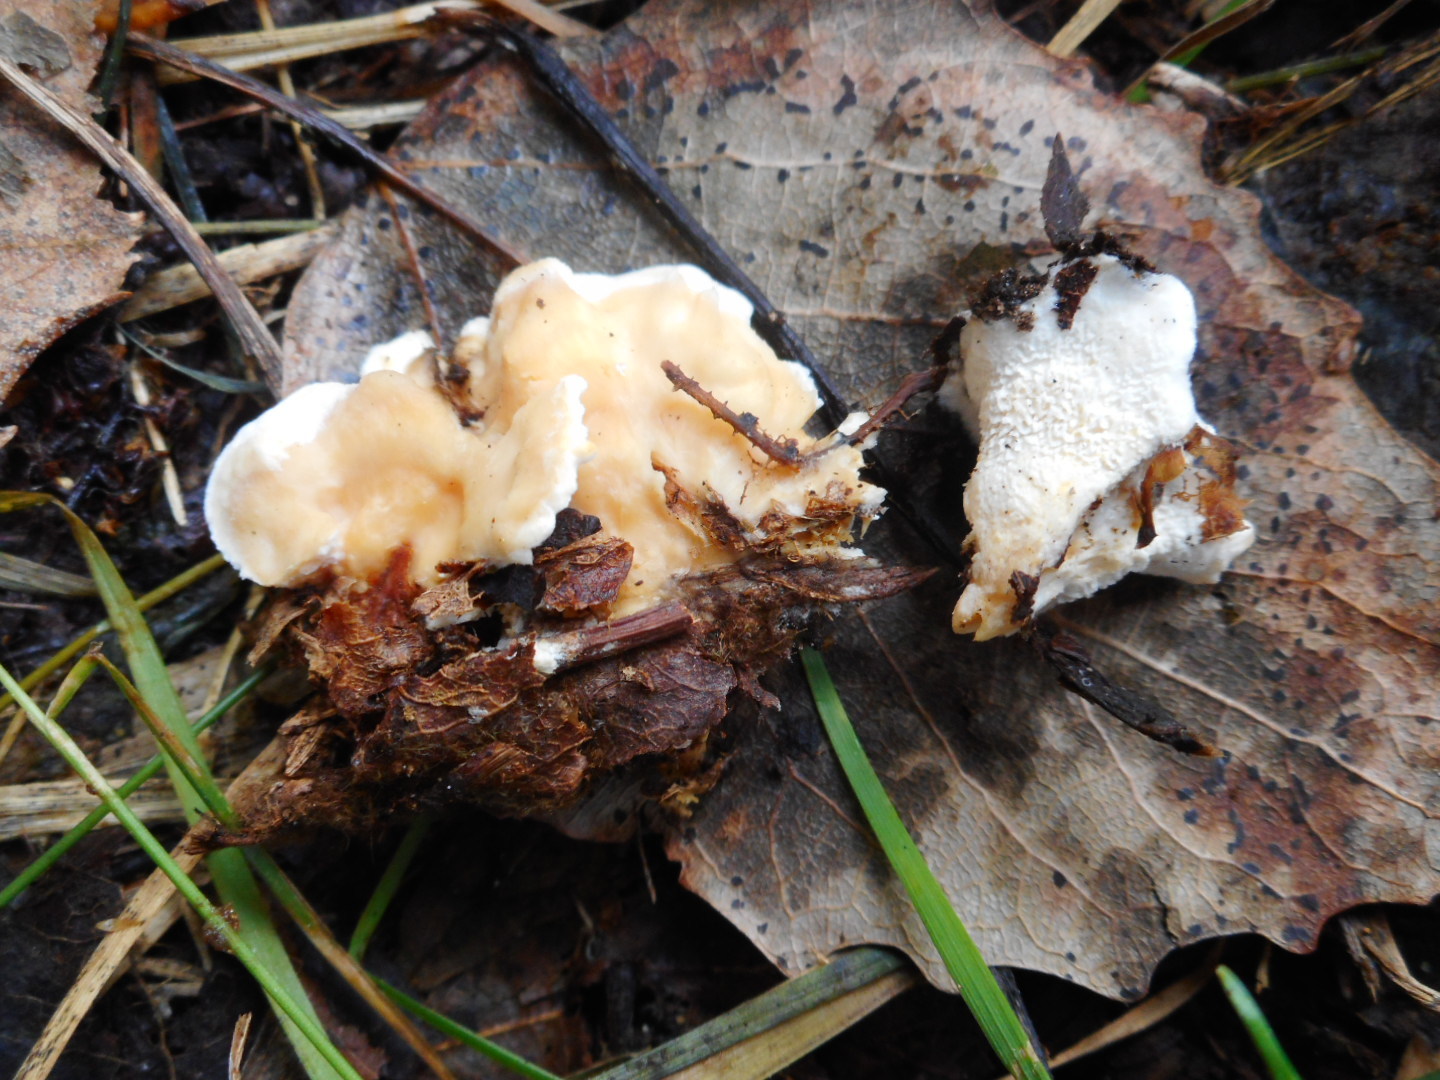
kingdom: Fungi
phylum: Basidiomycota
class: Agaricomycetes
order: Cantharellales
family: Hydnaceae
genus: Sistotrema
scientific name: Sistotrema confluens
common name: Aromatic earthfan
